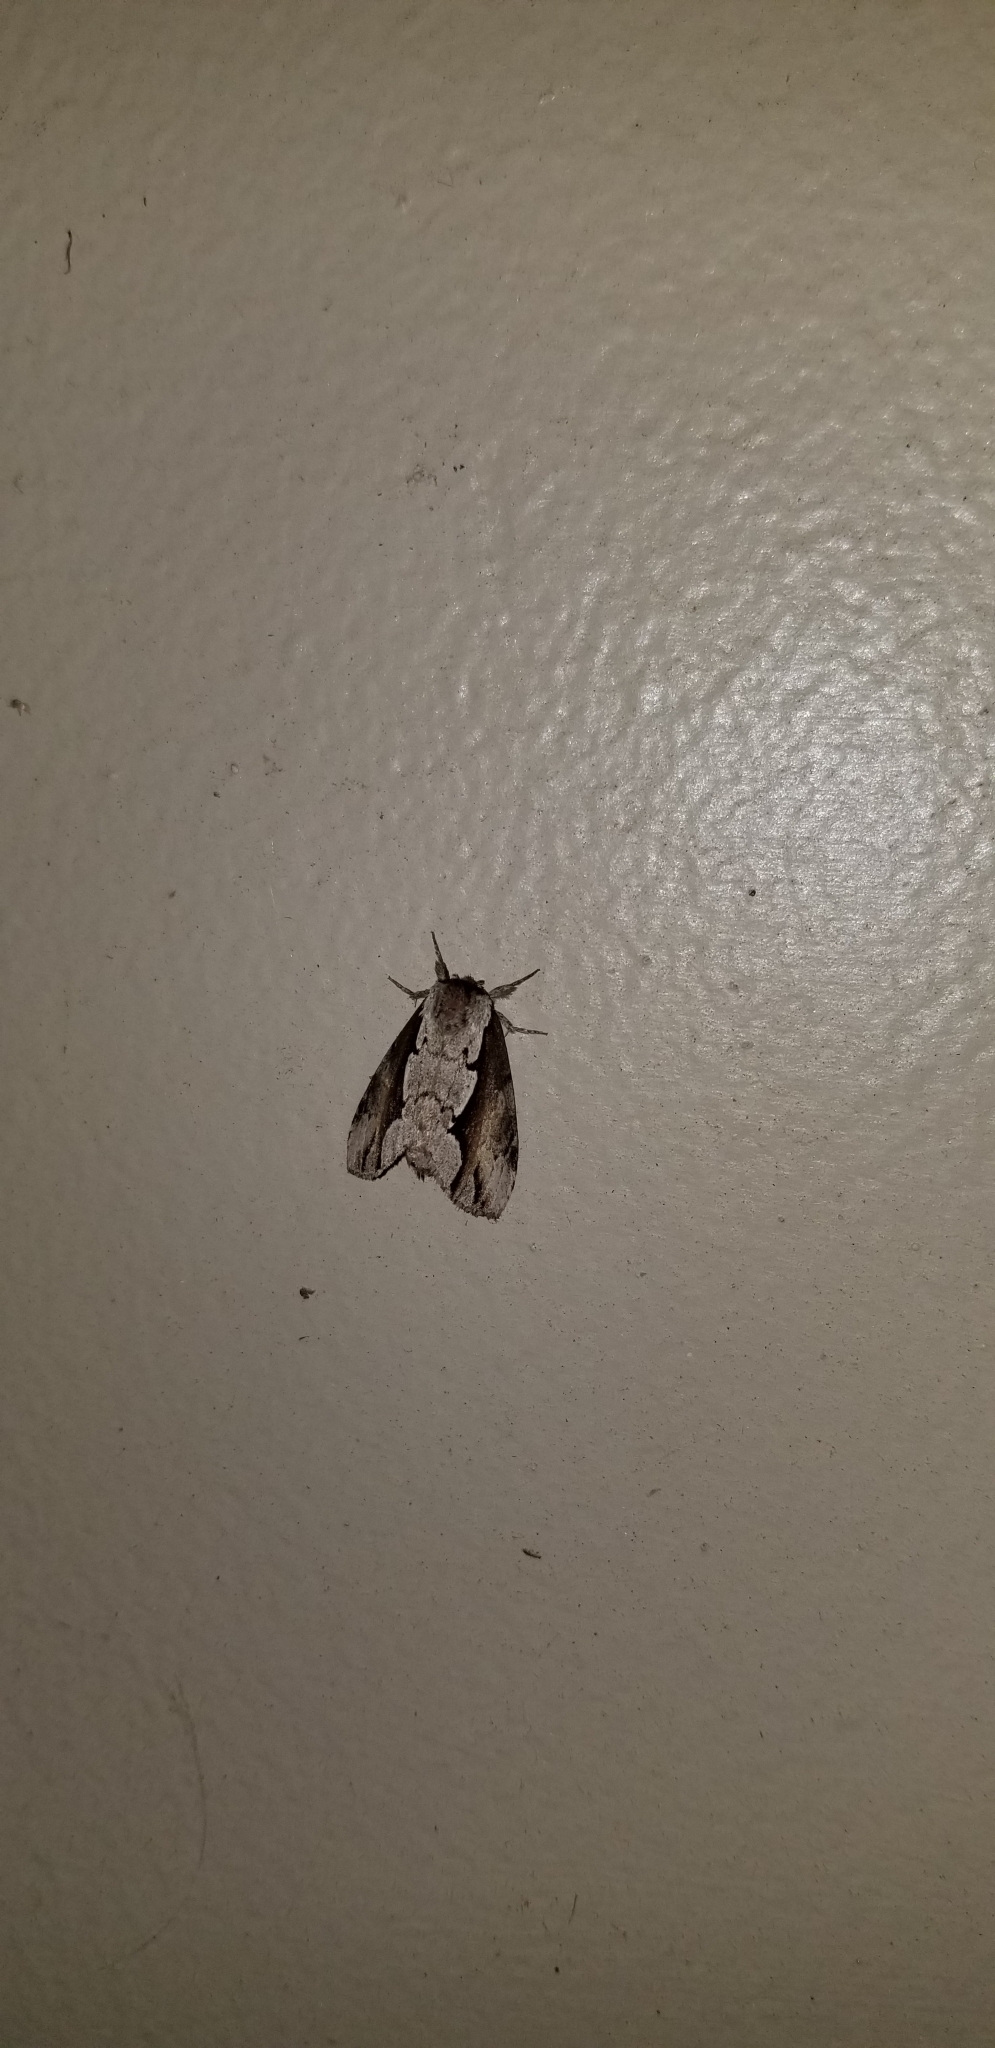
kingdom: Animalia
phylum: Arthropoda
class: Insecta
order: Lepidoptera
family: Notodontidae
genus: Nerice
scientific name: Nerice bidentata
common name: Double-toothed prominent
